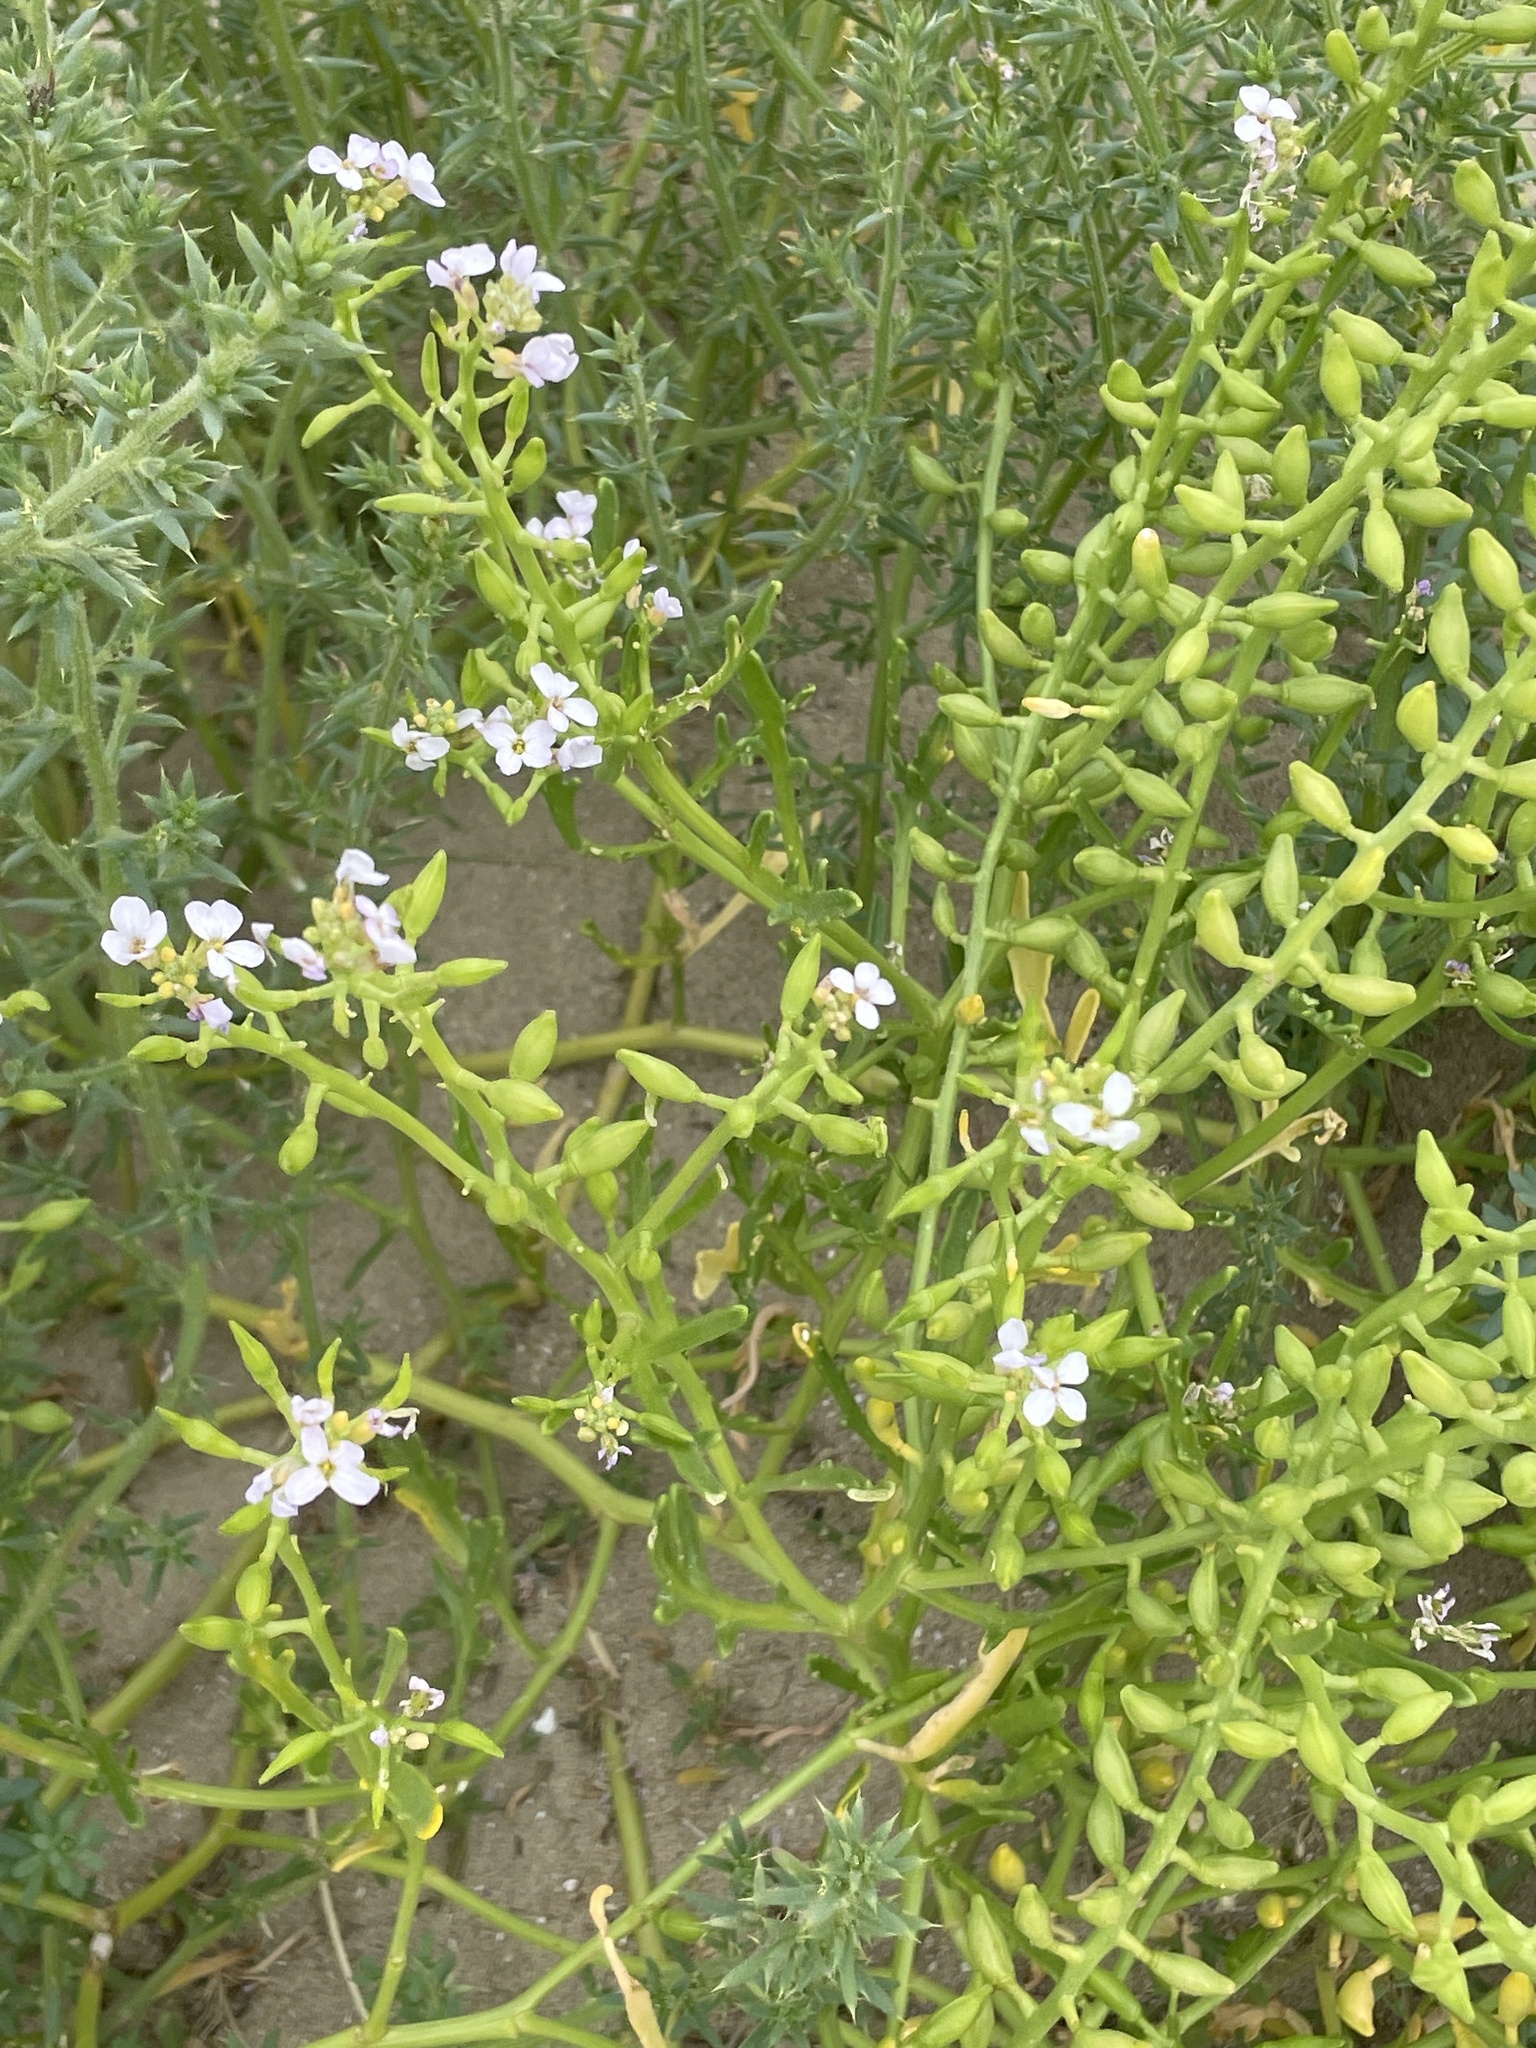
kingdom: Plantae
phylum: Tracheophyta
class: Magnoliopsida
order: Brassicales
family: Brassicaceae
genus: Cakile
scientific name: Cakile maritima
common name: Sea rocket
